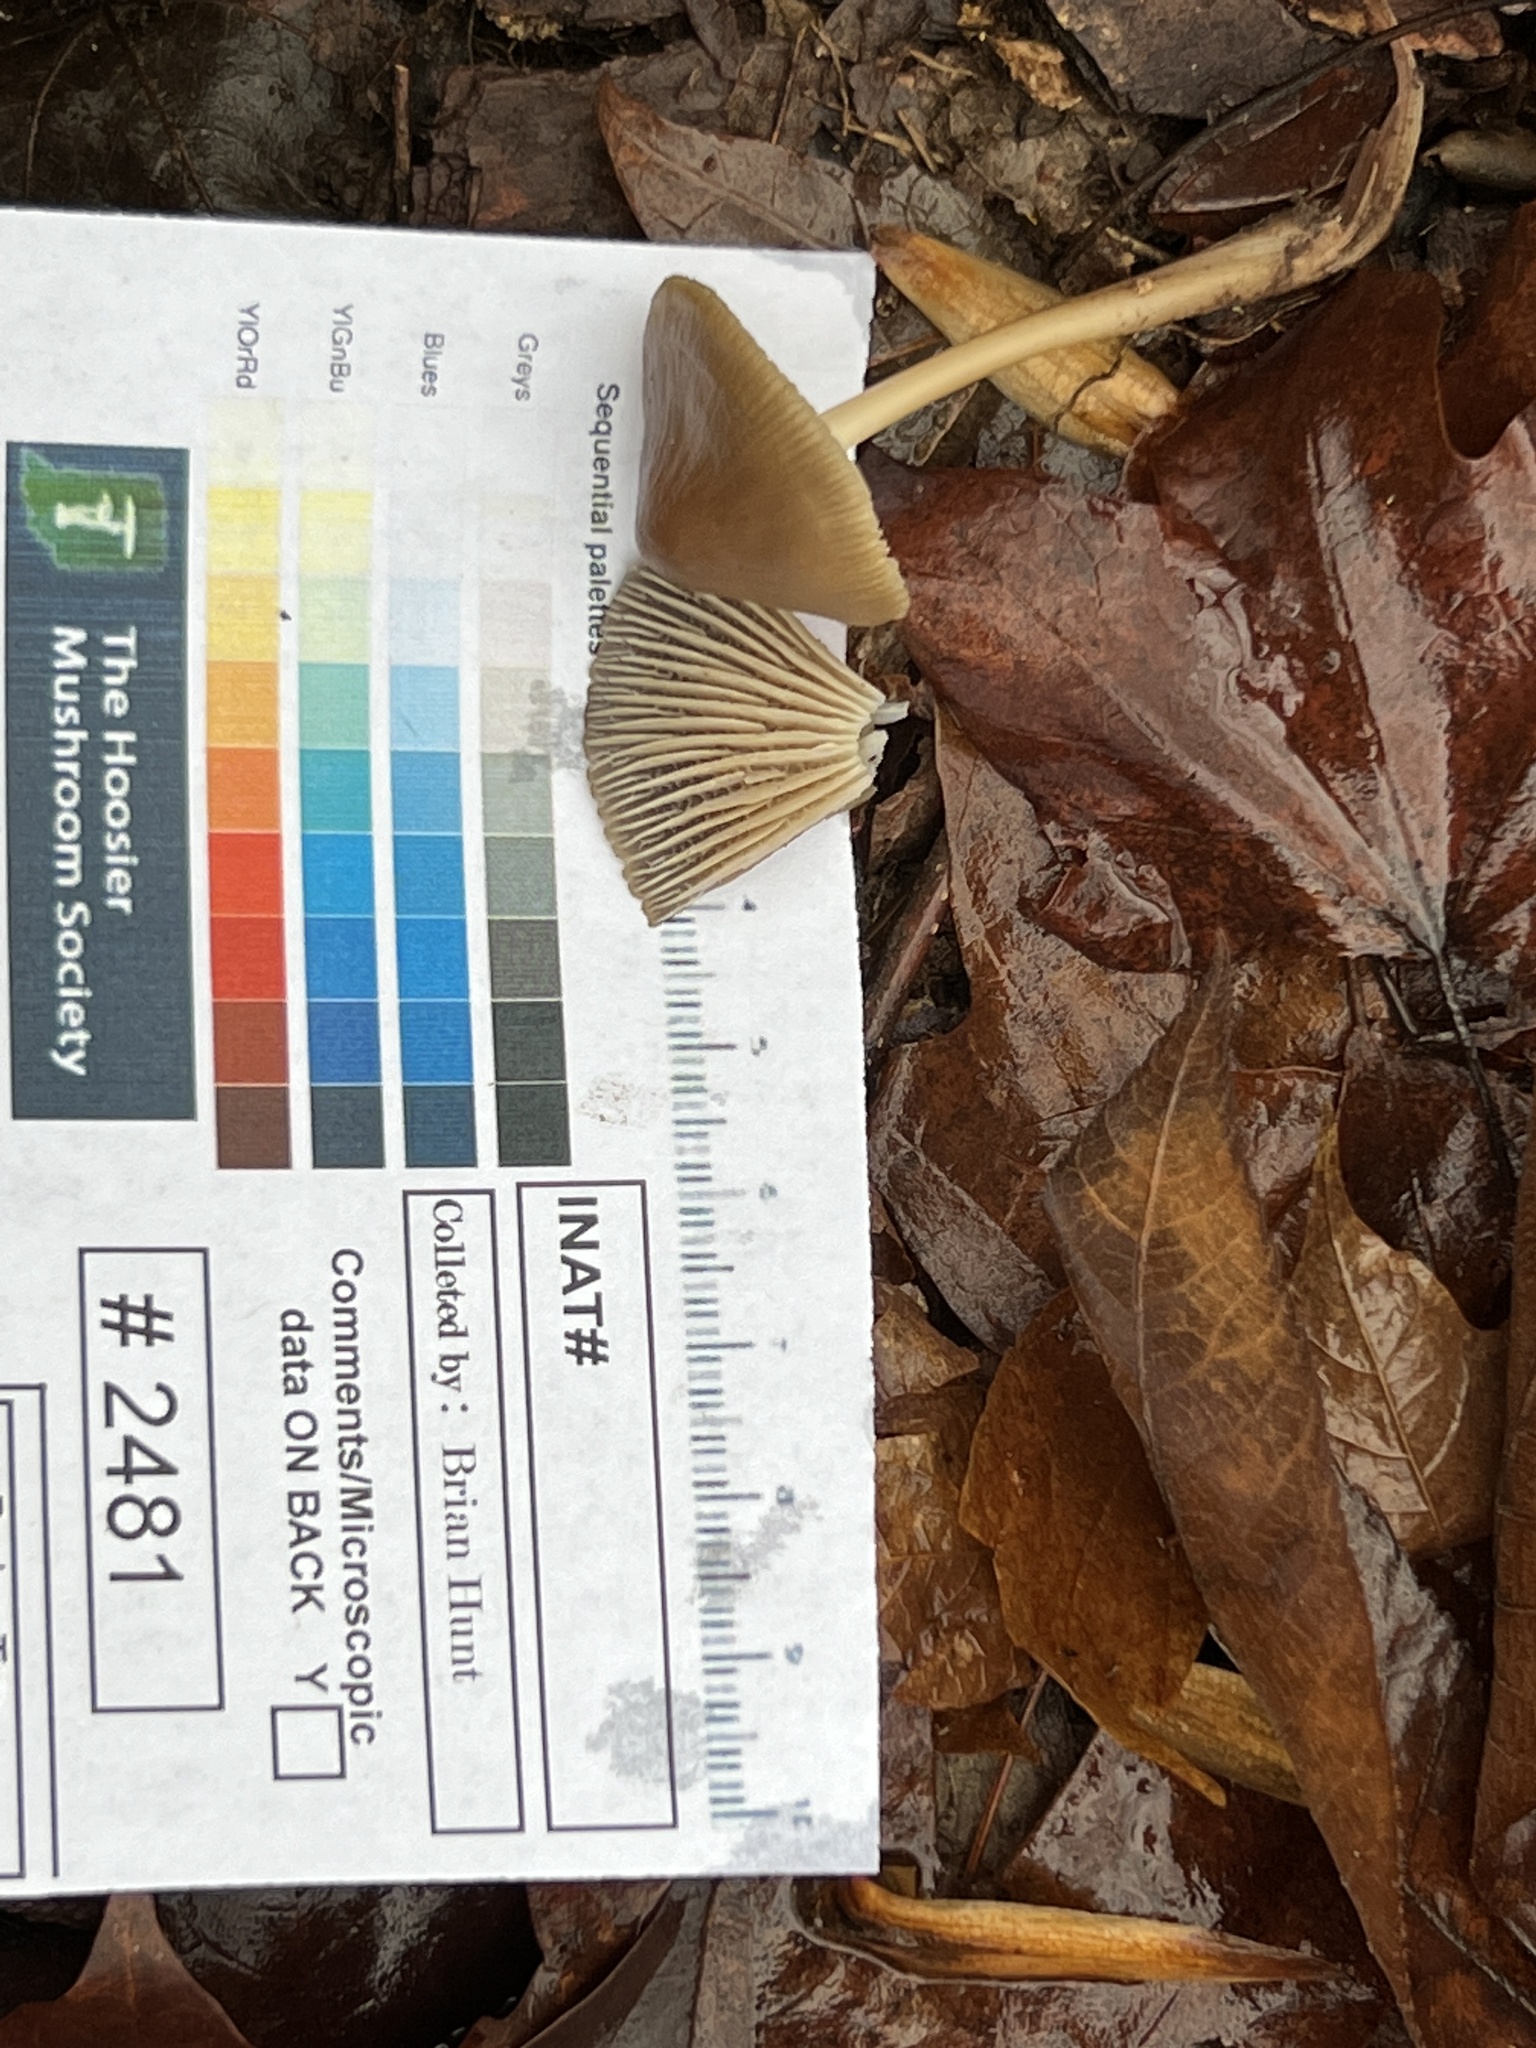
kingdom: Fungi
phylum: Basidiomycota
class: Agaricomycetes
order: Agaricales
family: Mycenaceae
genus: Mycena
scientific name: Mycena galericulata
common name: Bonnet mycena
